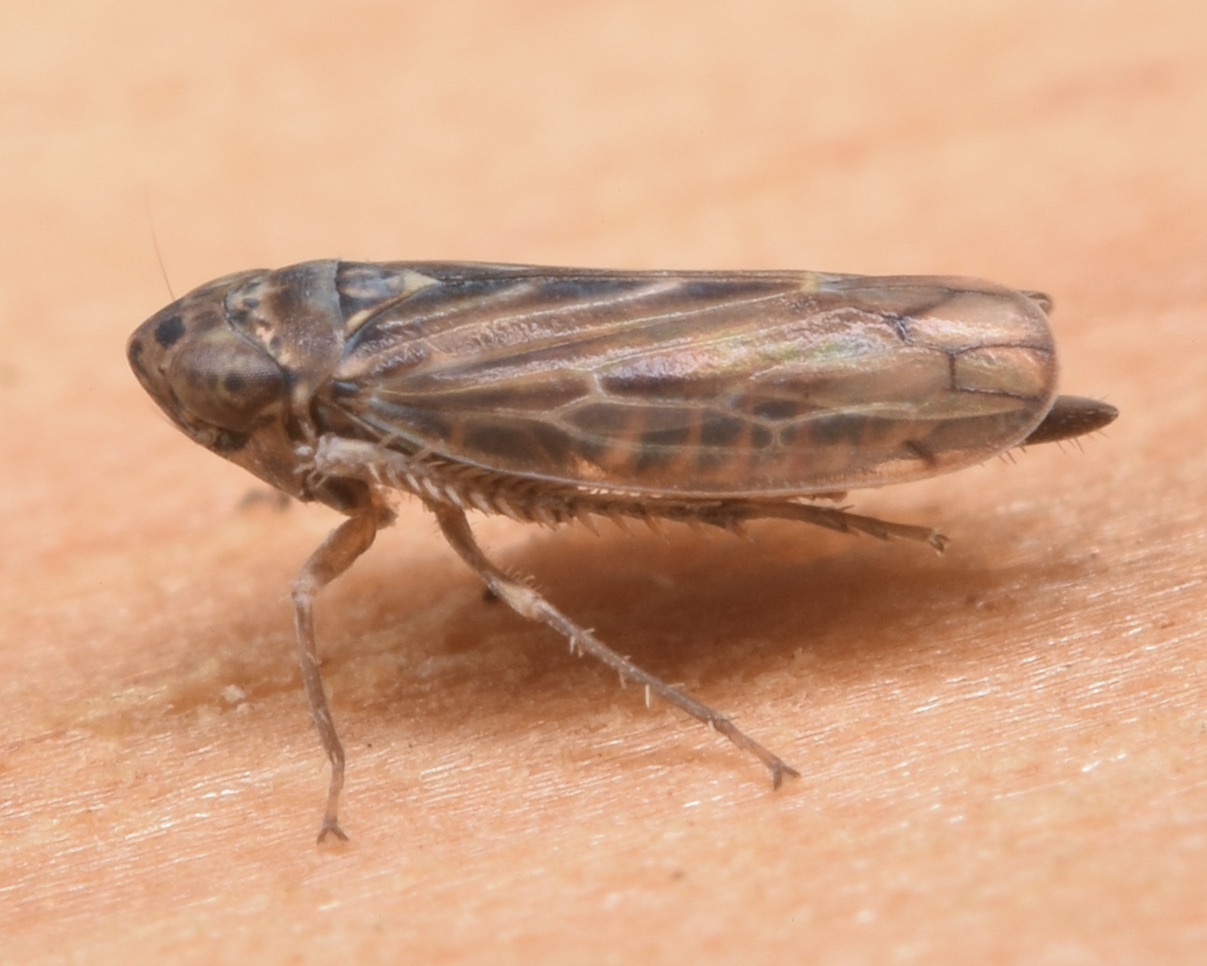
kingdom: Animalia
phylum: Arthropoda
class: Insecta
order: Hemiptera
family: Cicadellidae
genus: Stirellus
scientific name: Stirellus bicolor
